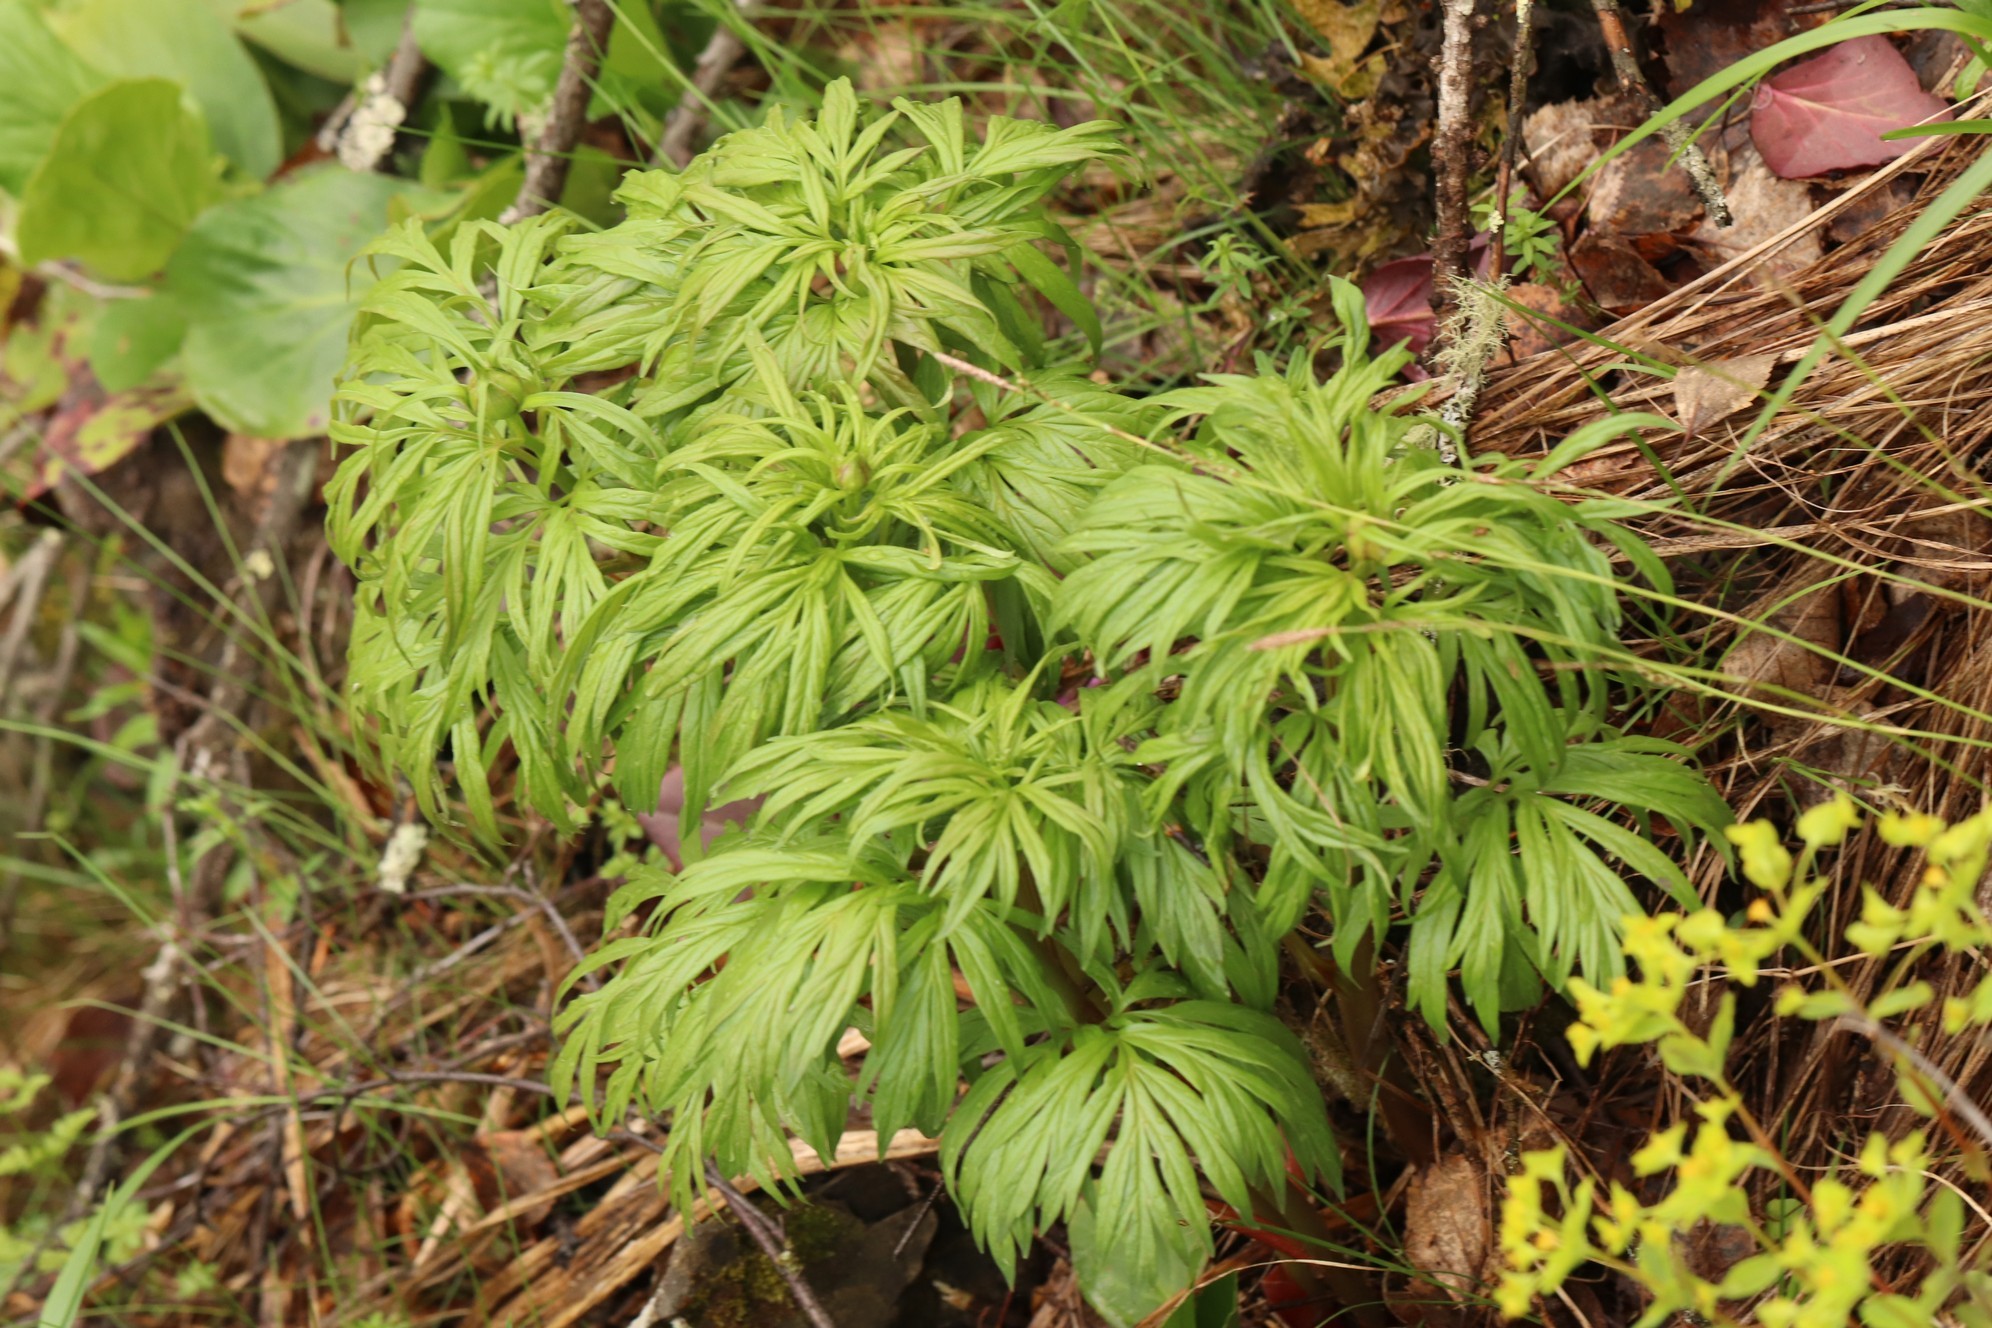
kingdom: Plantae
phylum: Tracheophyta
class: Magnoliopsida
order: Saxifragales
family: Paeoniaceae
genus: Paeonia
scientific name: Paeonia anomala
